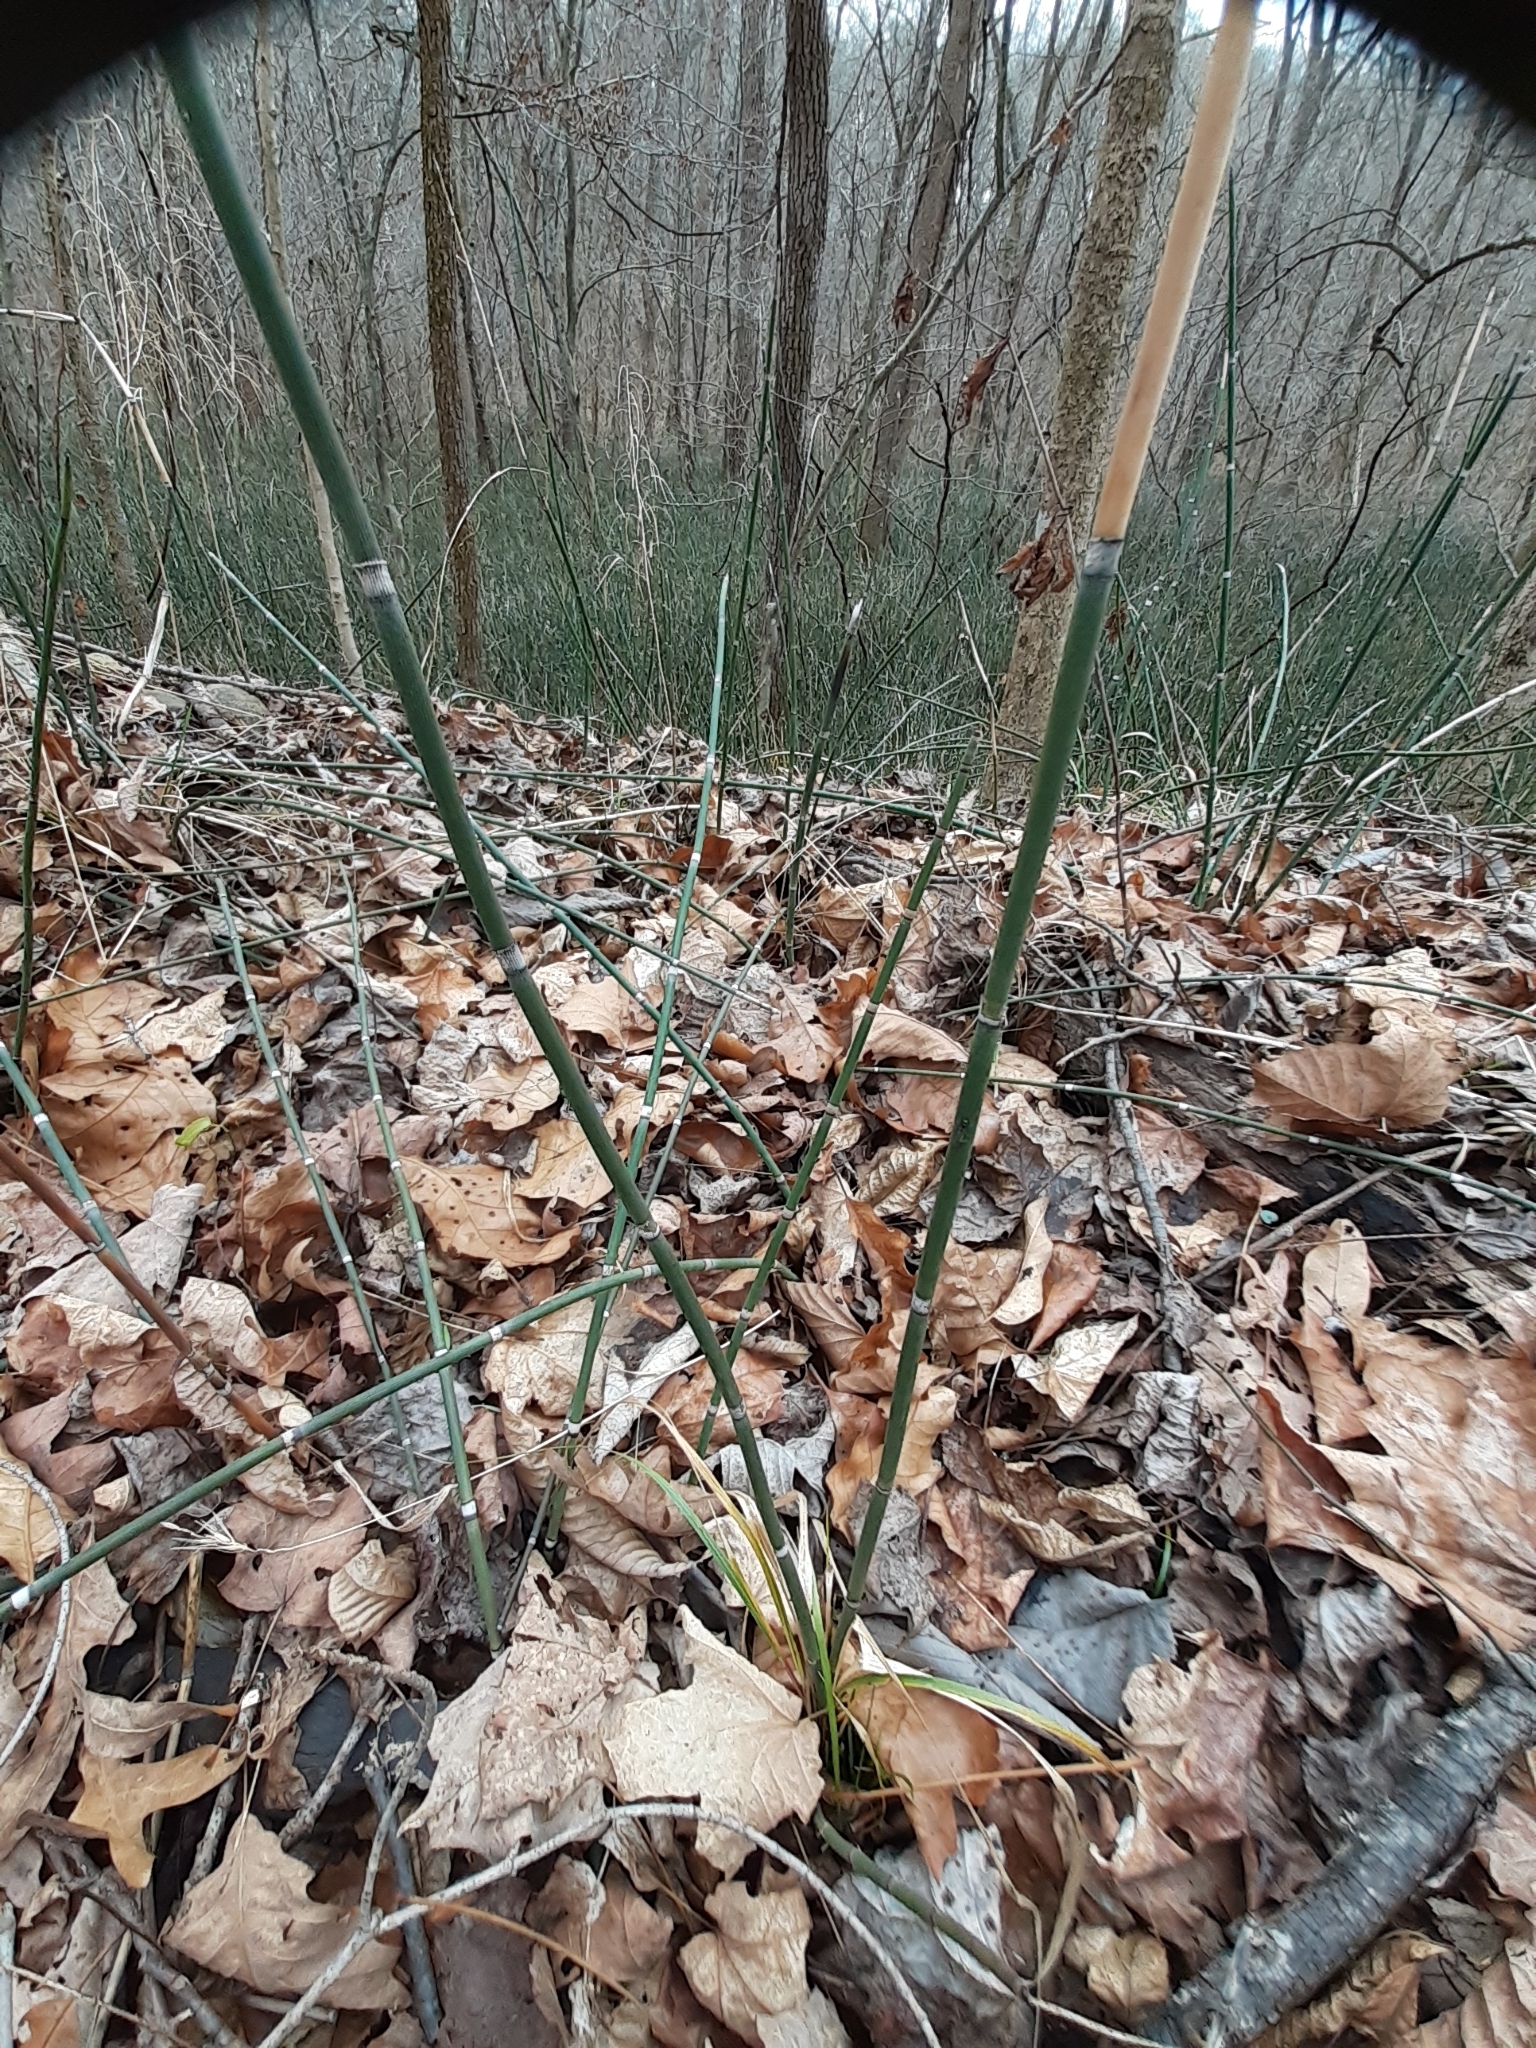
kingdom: Plantae
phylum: Tracheophyta
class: Polypodiopsida
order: Equisetales
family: Equisetaceae
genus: Equisetum
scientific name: Equisetum hyemale
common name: Rough horsetail
